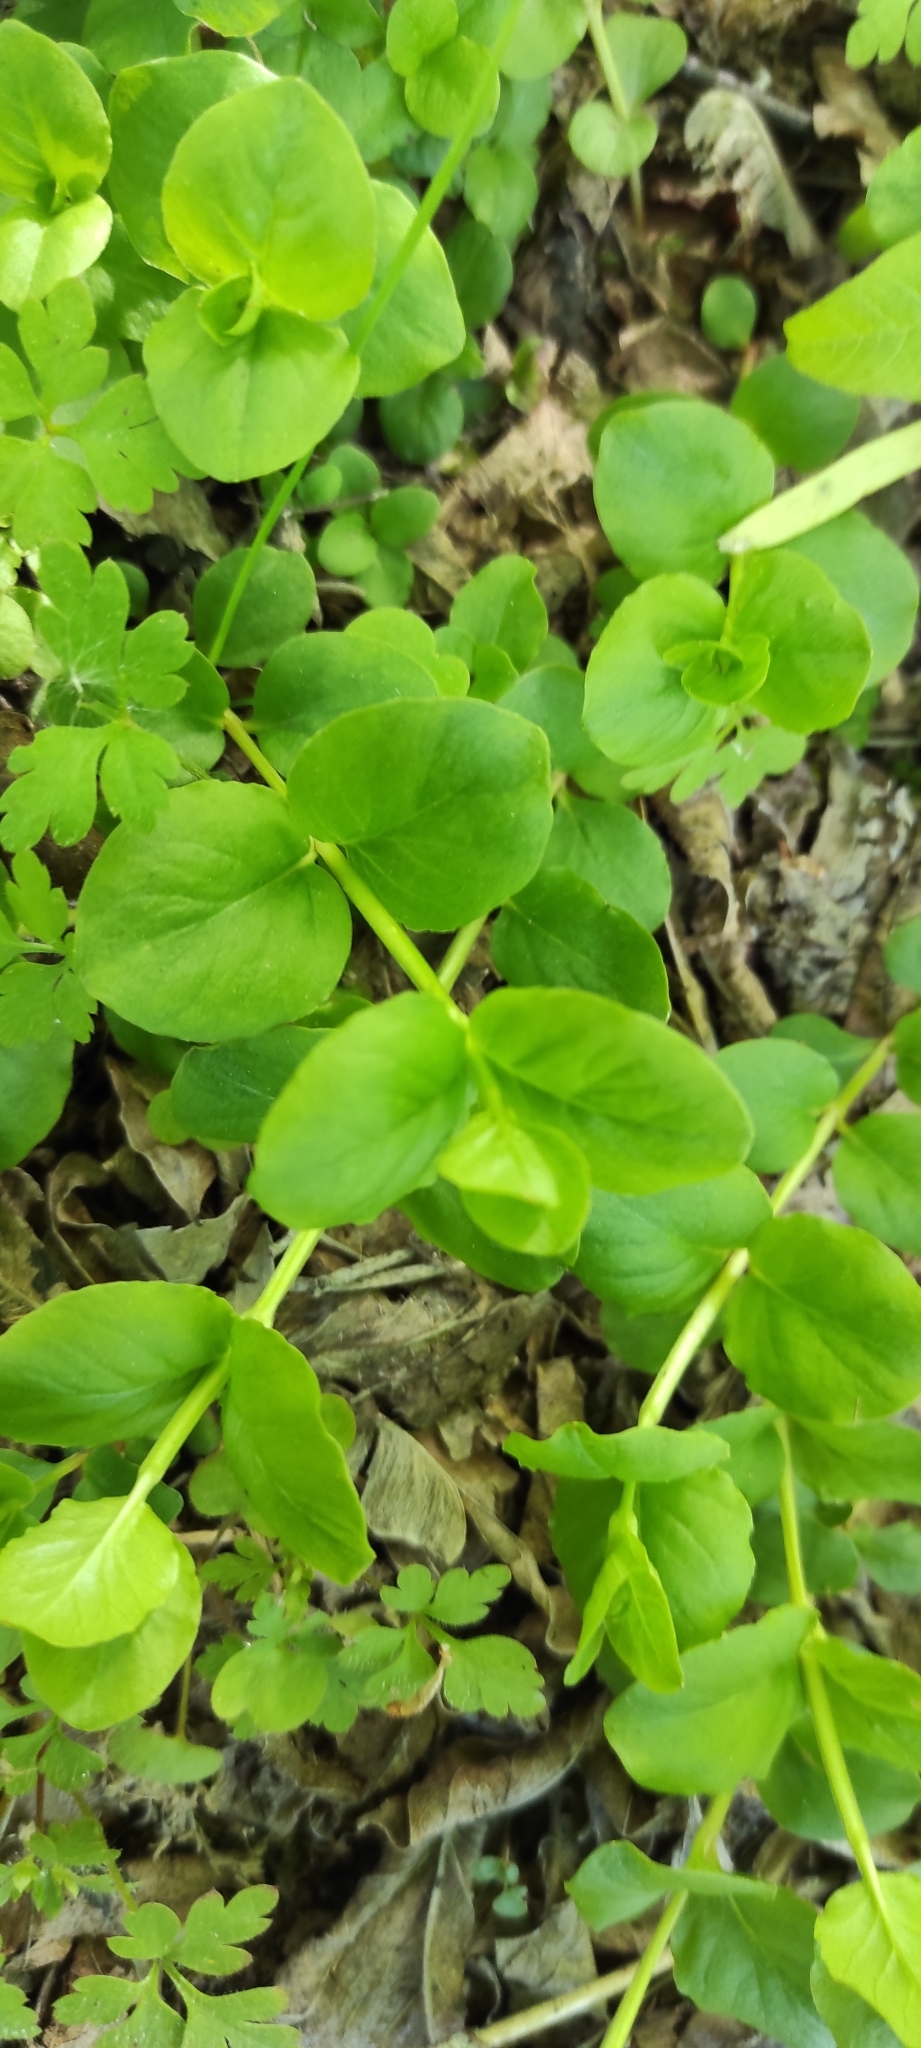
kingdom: Plantae
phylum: Tracheophyta
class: Magnoliopsida
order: Ericales
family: Primulaceae
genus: Lysimachia
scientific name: Lysimachia nummularia
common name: Moneywort
